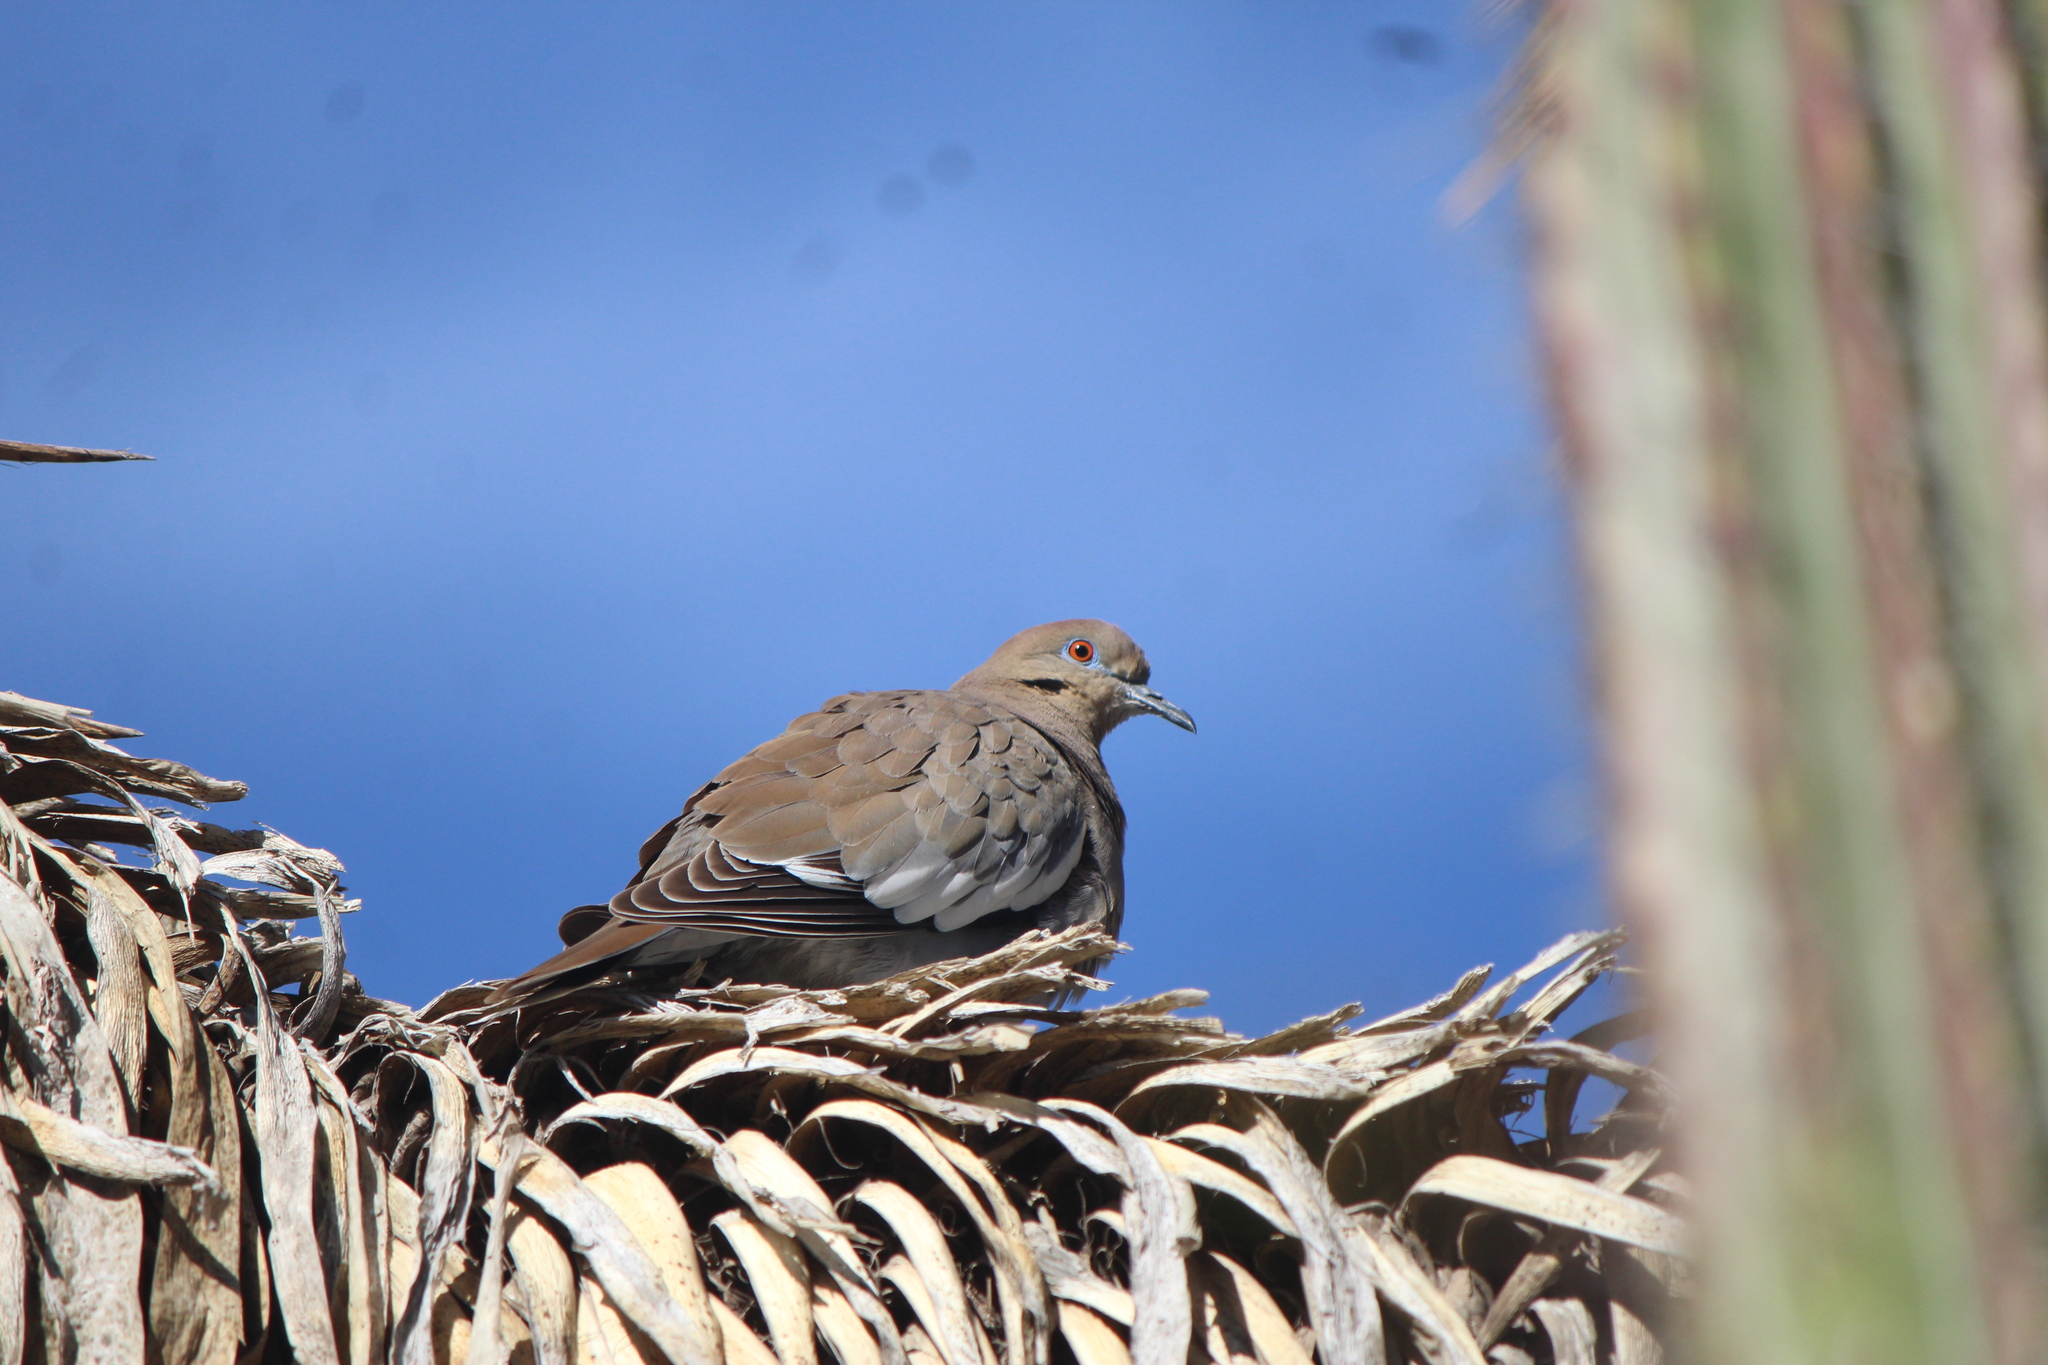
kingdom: Animalia
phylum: Chordata
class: Aves
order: Columbiformes
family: Columbidae
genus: Zenaida
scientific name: Zenaida asiatica
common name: White-winged dove
